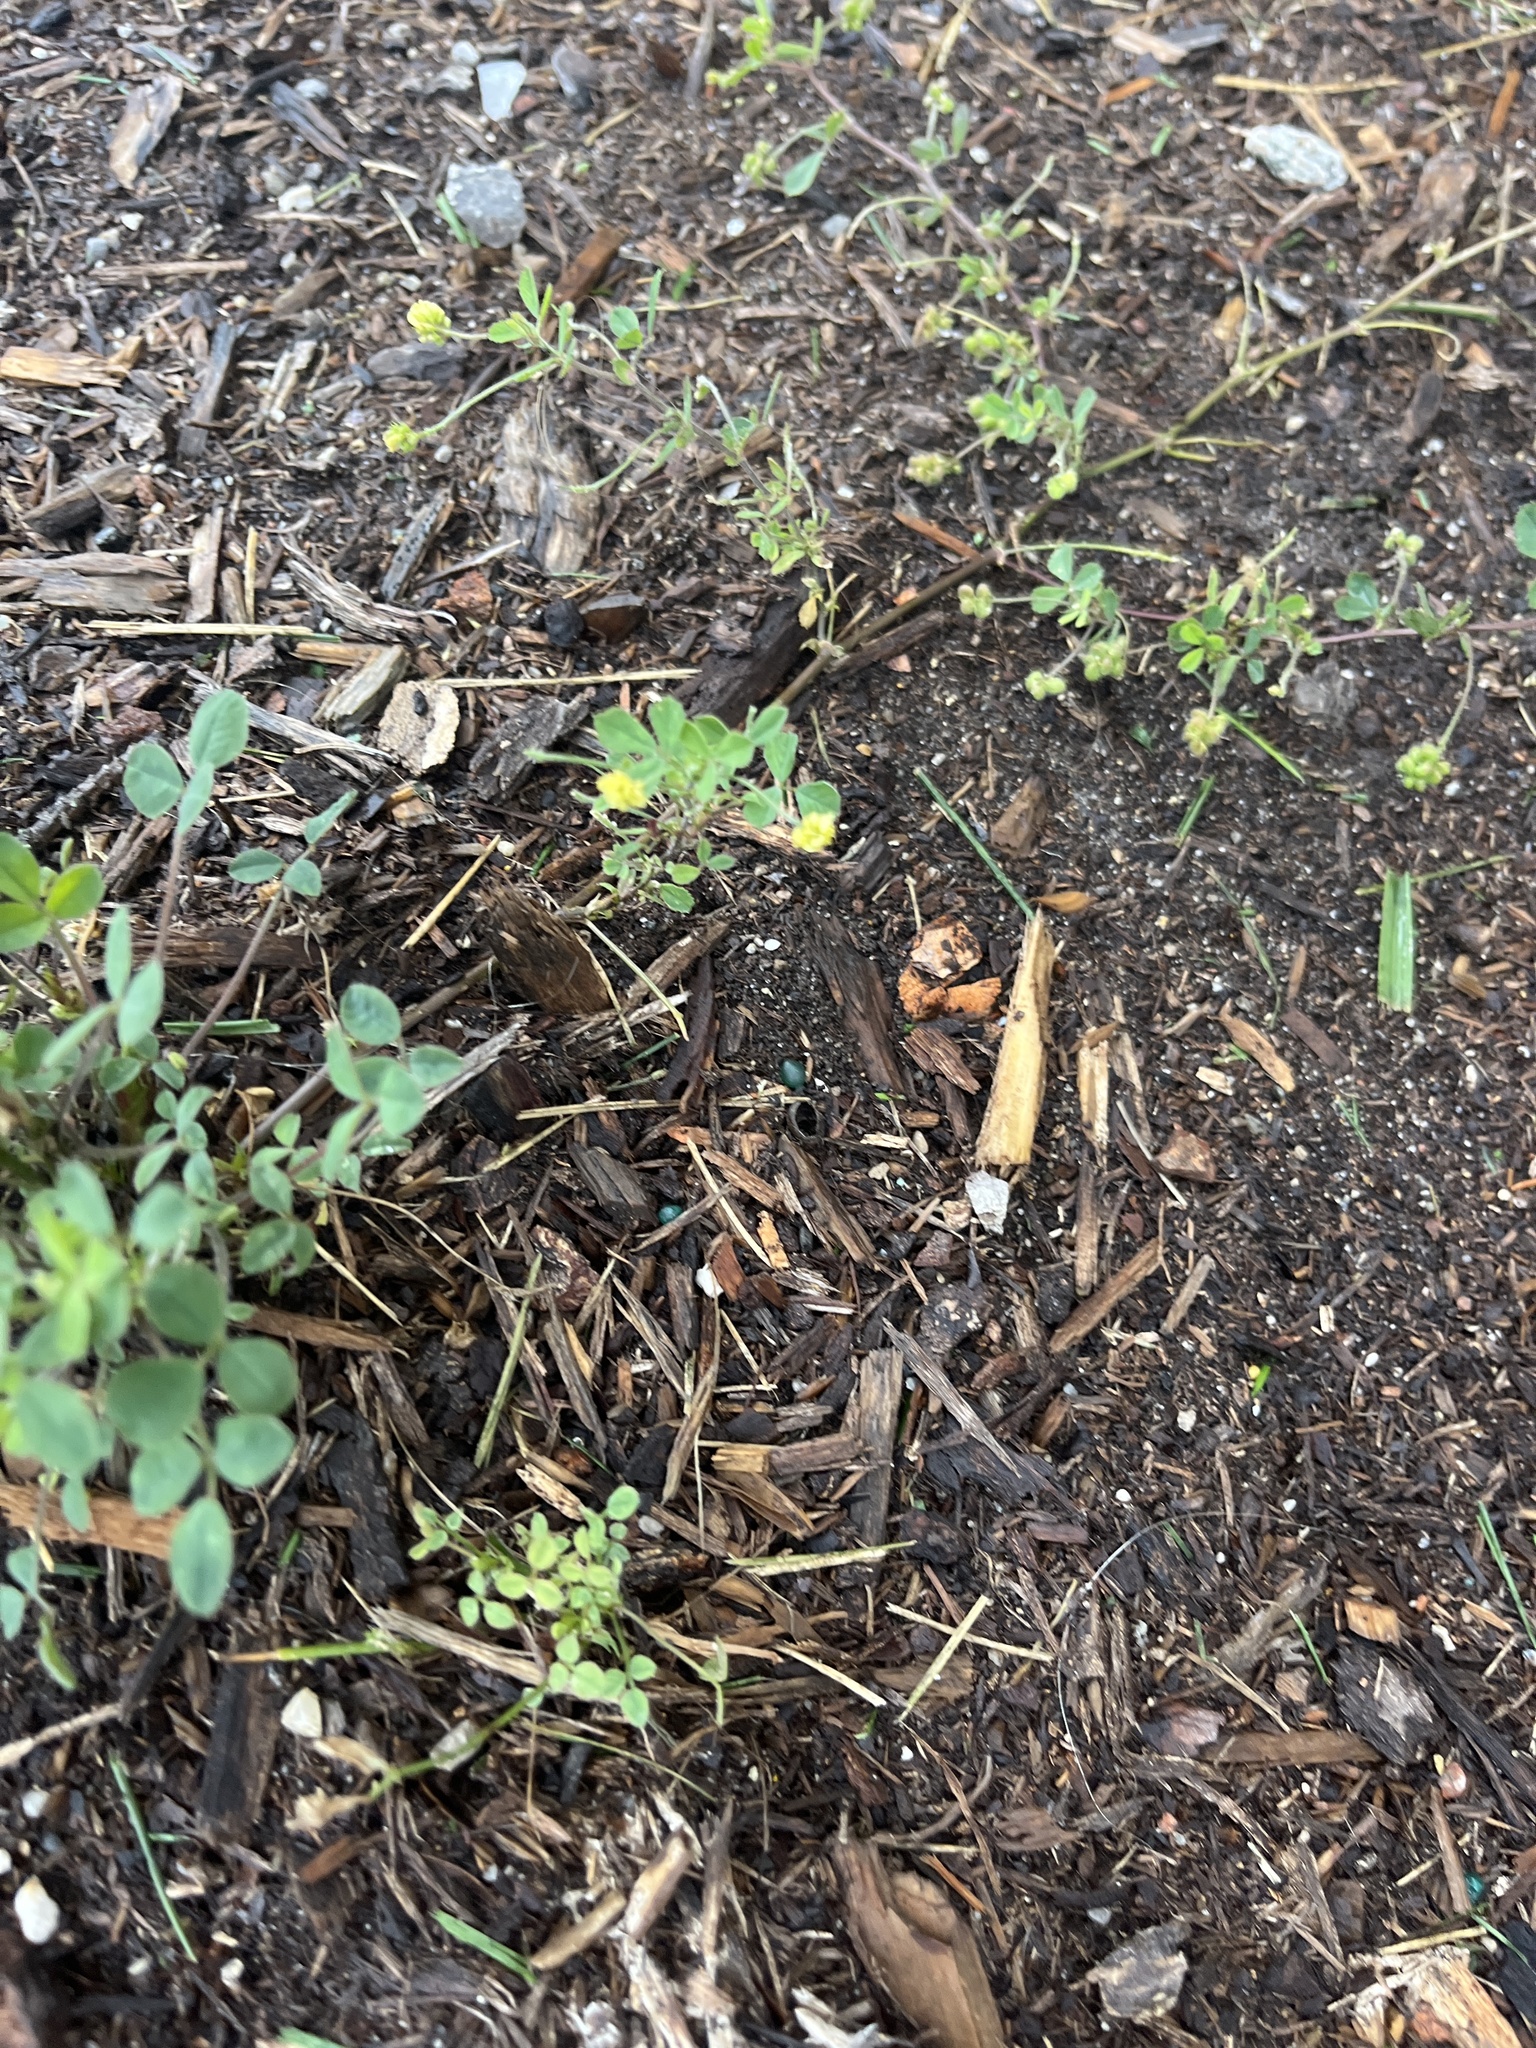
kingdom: Plantae
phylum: Tracheophyta
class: Magnoliopsida
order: Fabales
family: Fabaceae
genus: Medicago
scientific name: Medicago lupulina
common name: Black medick
